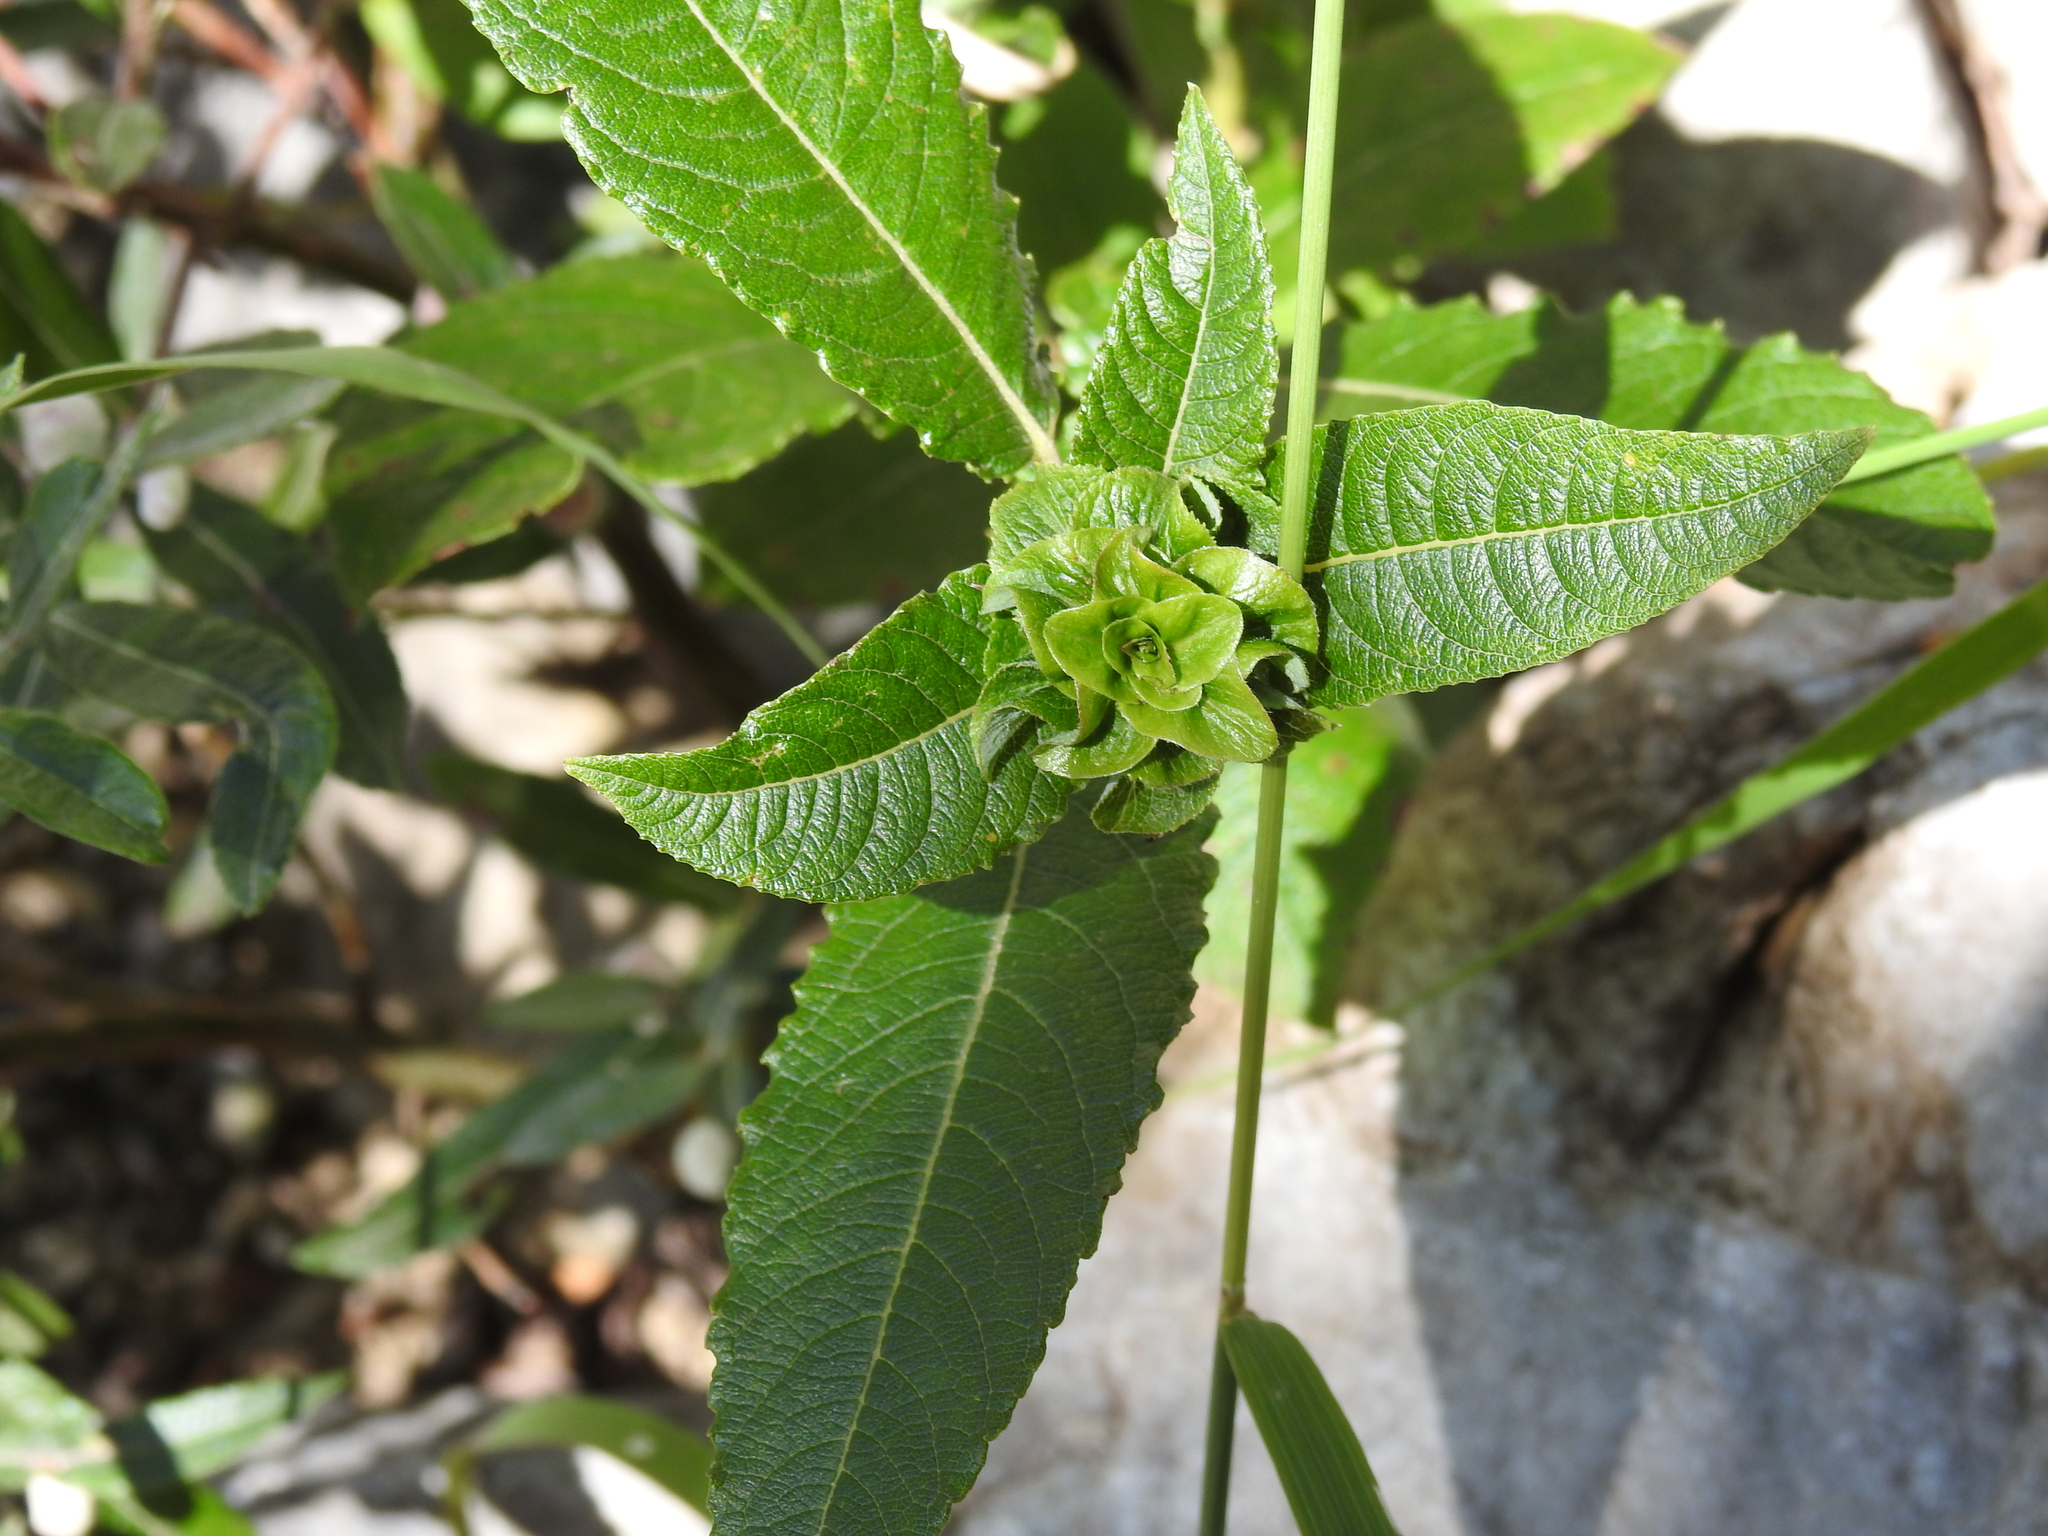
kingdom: Animalia
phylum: Arthropoda
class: Insecta
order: Diptera
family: Cecidomyiidae
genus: Rabdophaga
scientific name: Rabdophaga rosaria
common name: Willow rose gall midge
